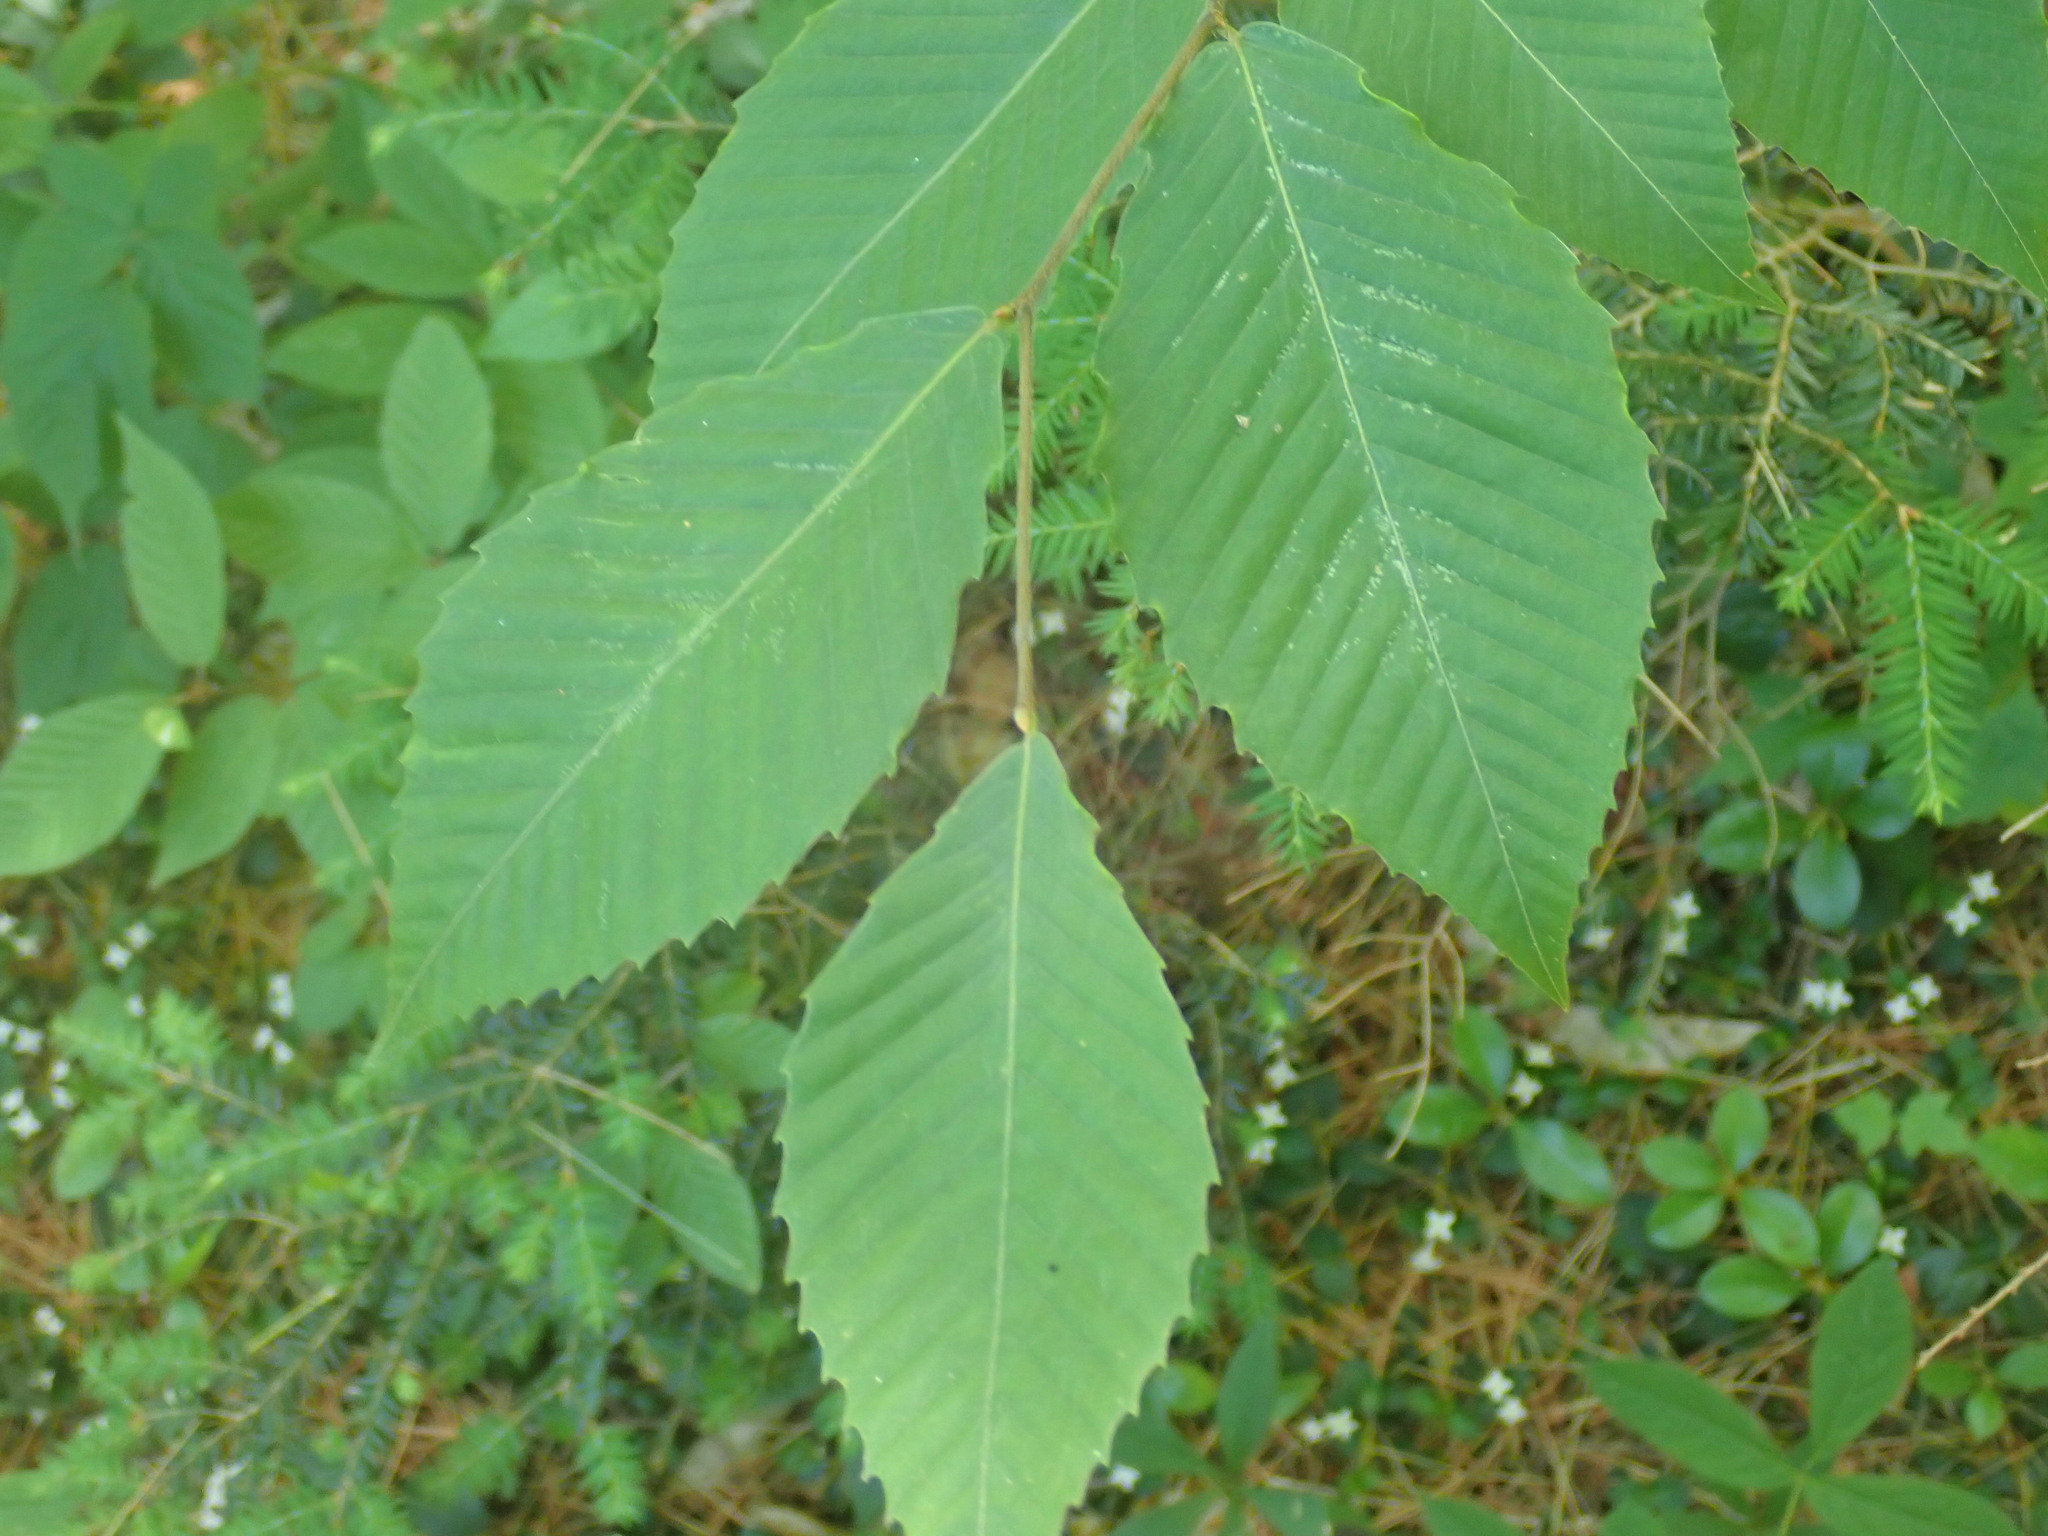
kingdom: Plantae
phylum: Tracheophyta
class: Magnoliopsida
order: Fagales
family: Fagaceae
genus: Fagus
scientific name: Fagus grandifolia
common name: American beech
